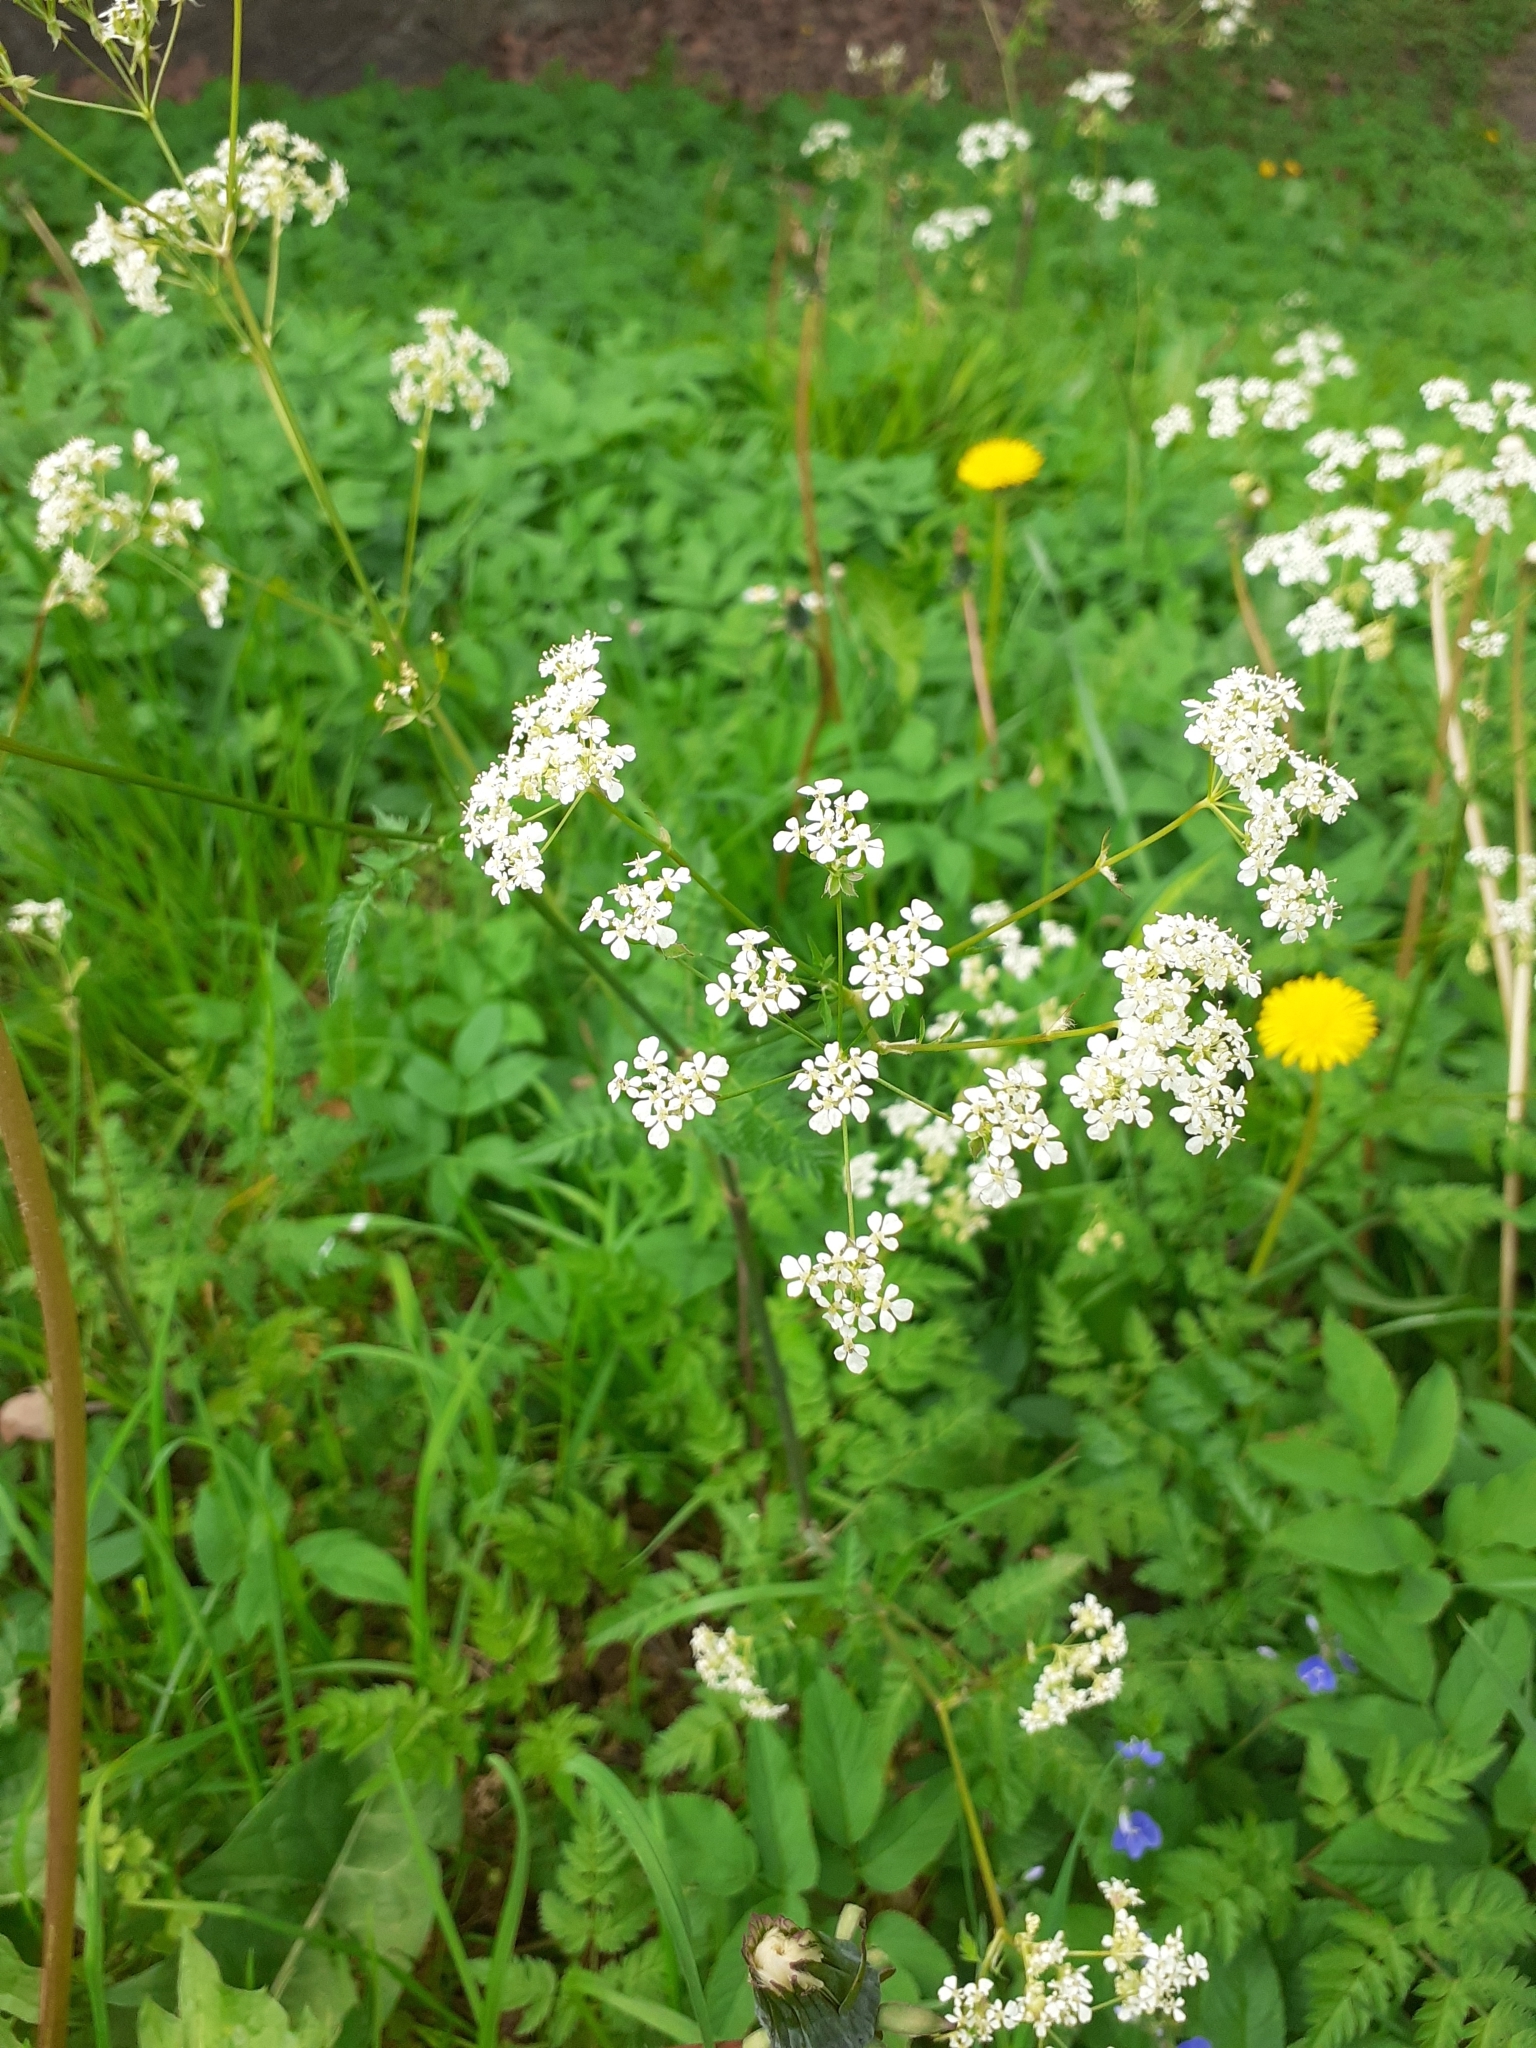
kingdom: Plantae
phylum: Tracheophyta
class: Magnoliopsida
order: Apiales
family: Apiaceae
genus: Anthriscus
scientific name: Anthriscus sylvestris
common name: Cow parsley
